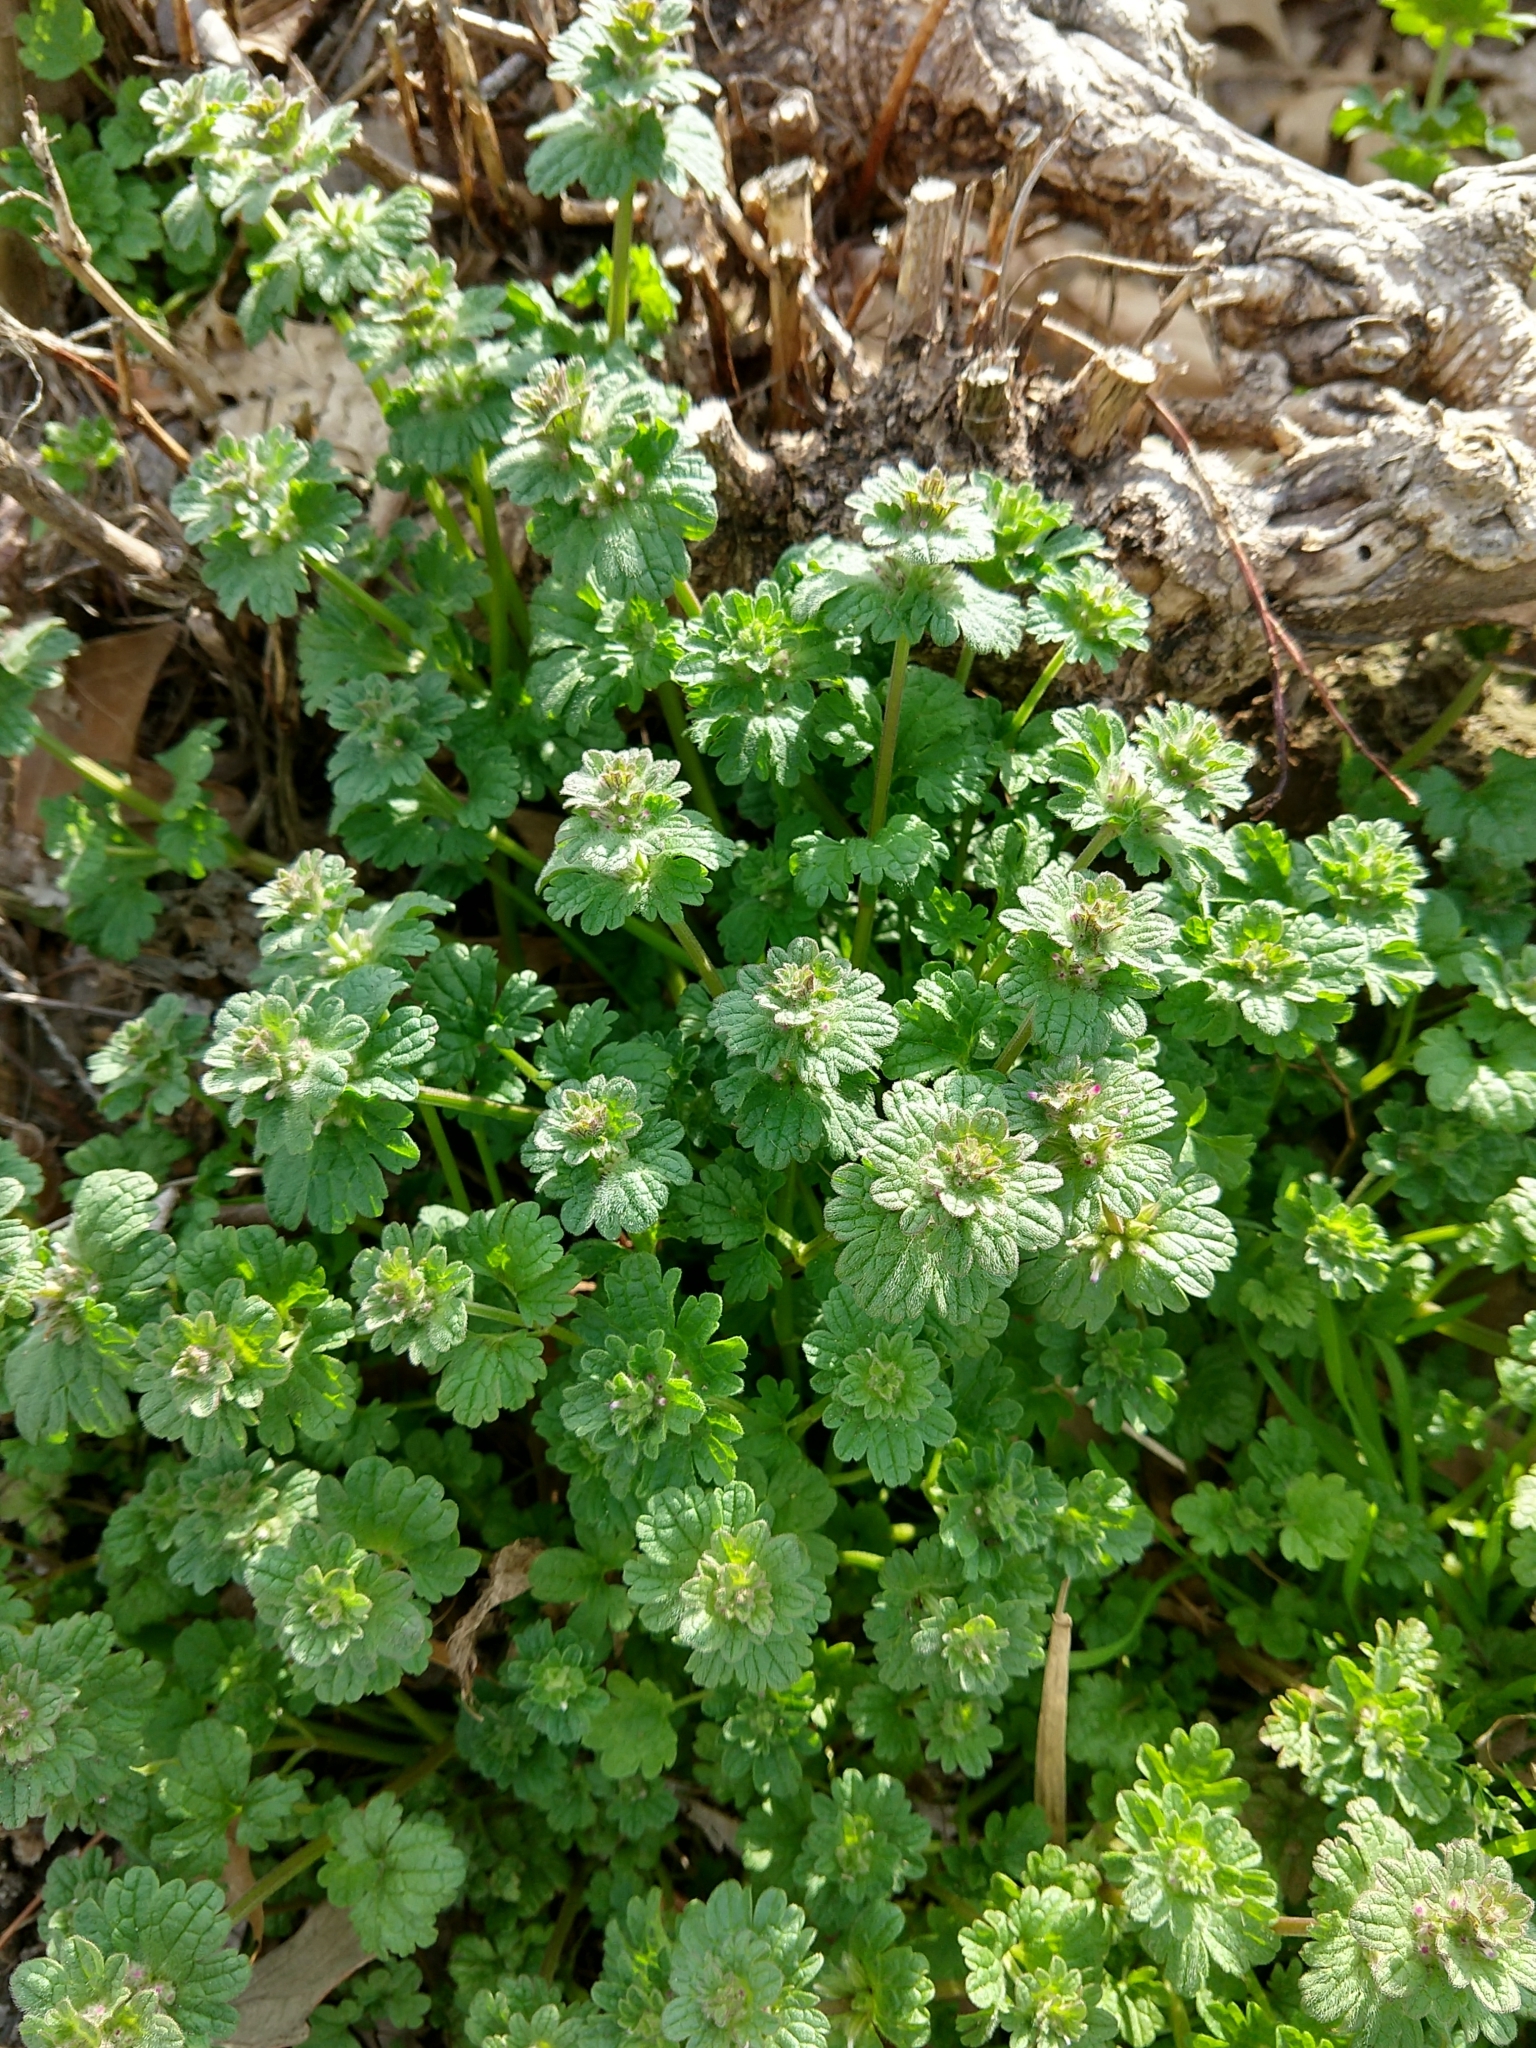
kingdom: Plantae
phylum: Tracheophyta
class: Magnoliopsida
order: Lamiales
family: Lamiaceae
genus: Lamium
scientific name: Lamium amplexicaule
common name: Henbit dead-nettle
